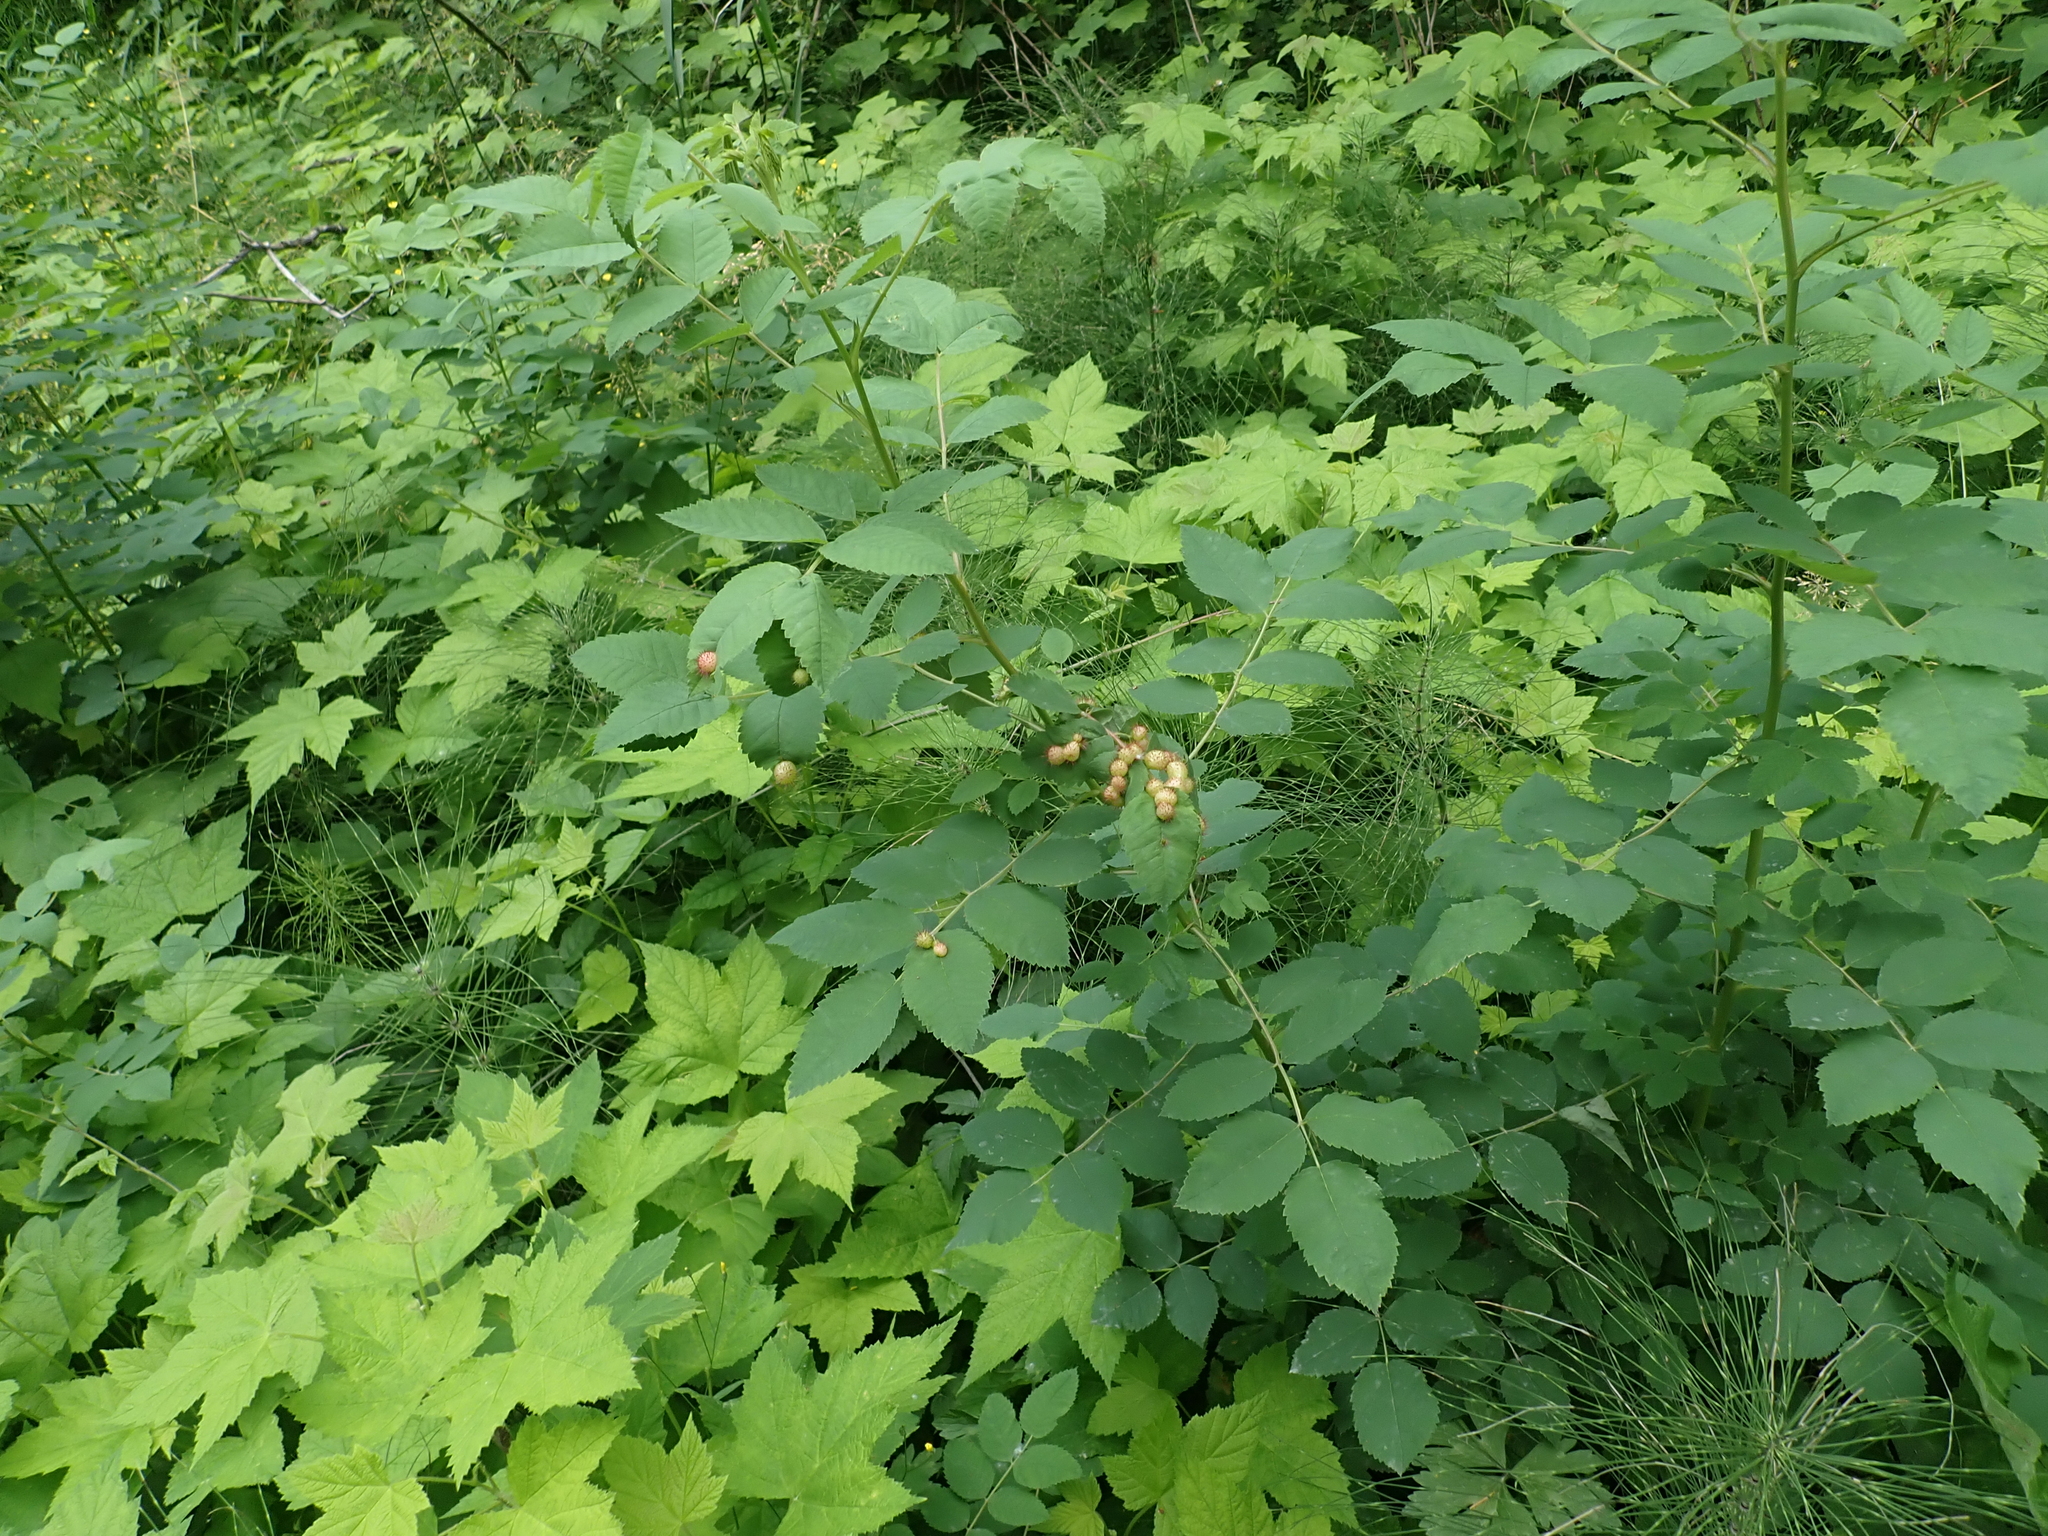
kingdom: Animalia
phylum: Arthropoda
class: Insecta
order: Hymenoptera
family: Cynipidae
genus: Diplolepis
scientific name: Diplolepis polita
